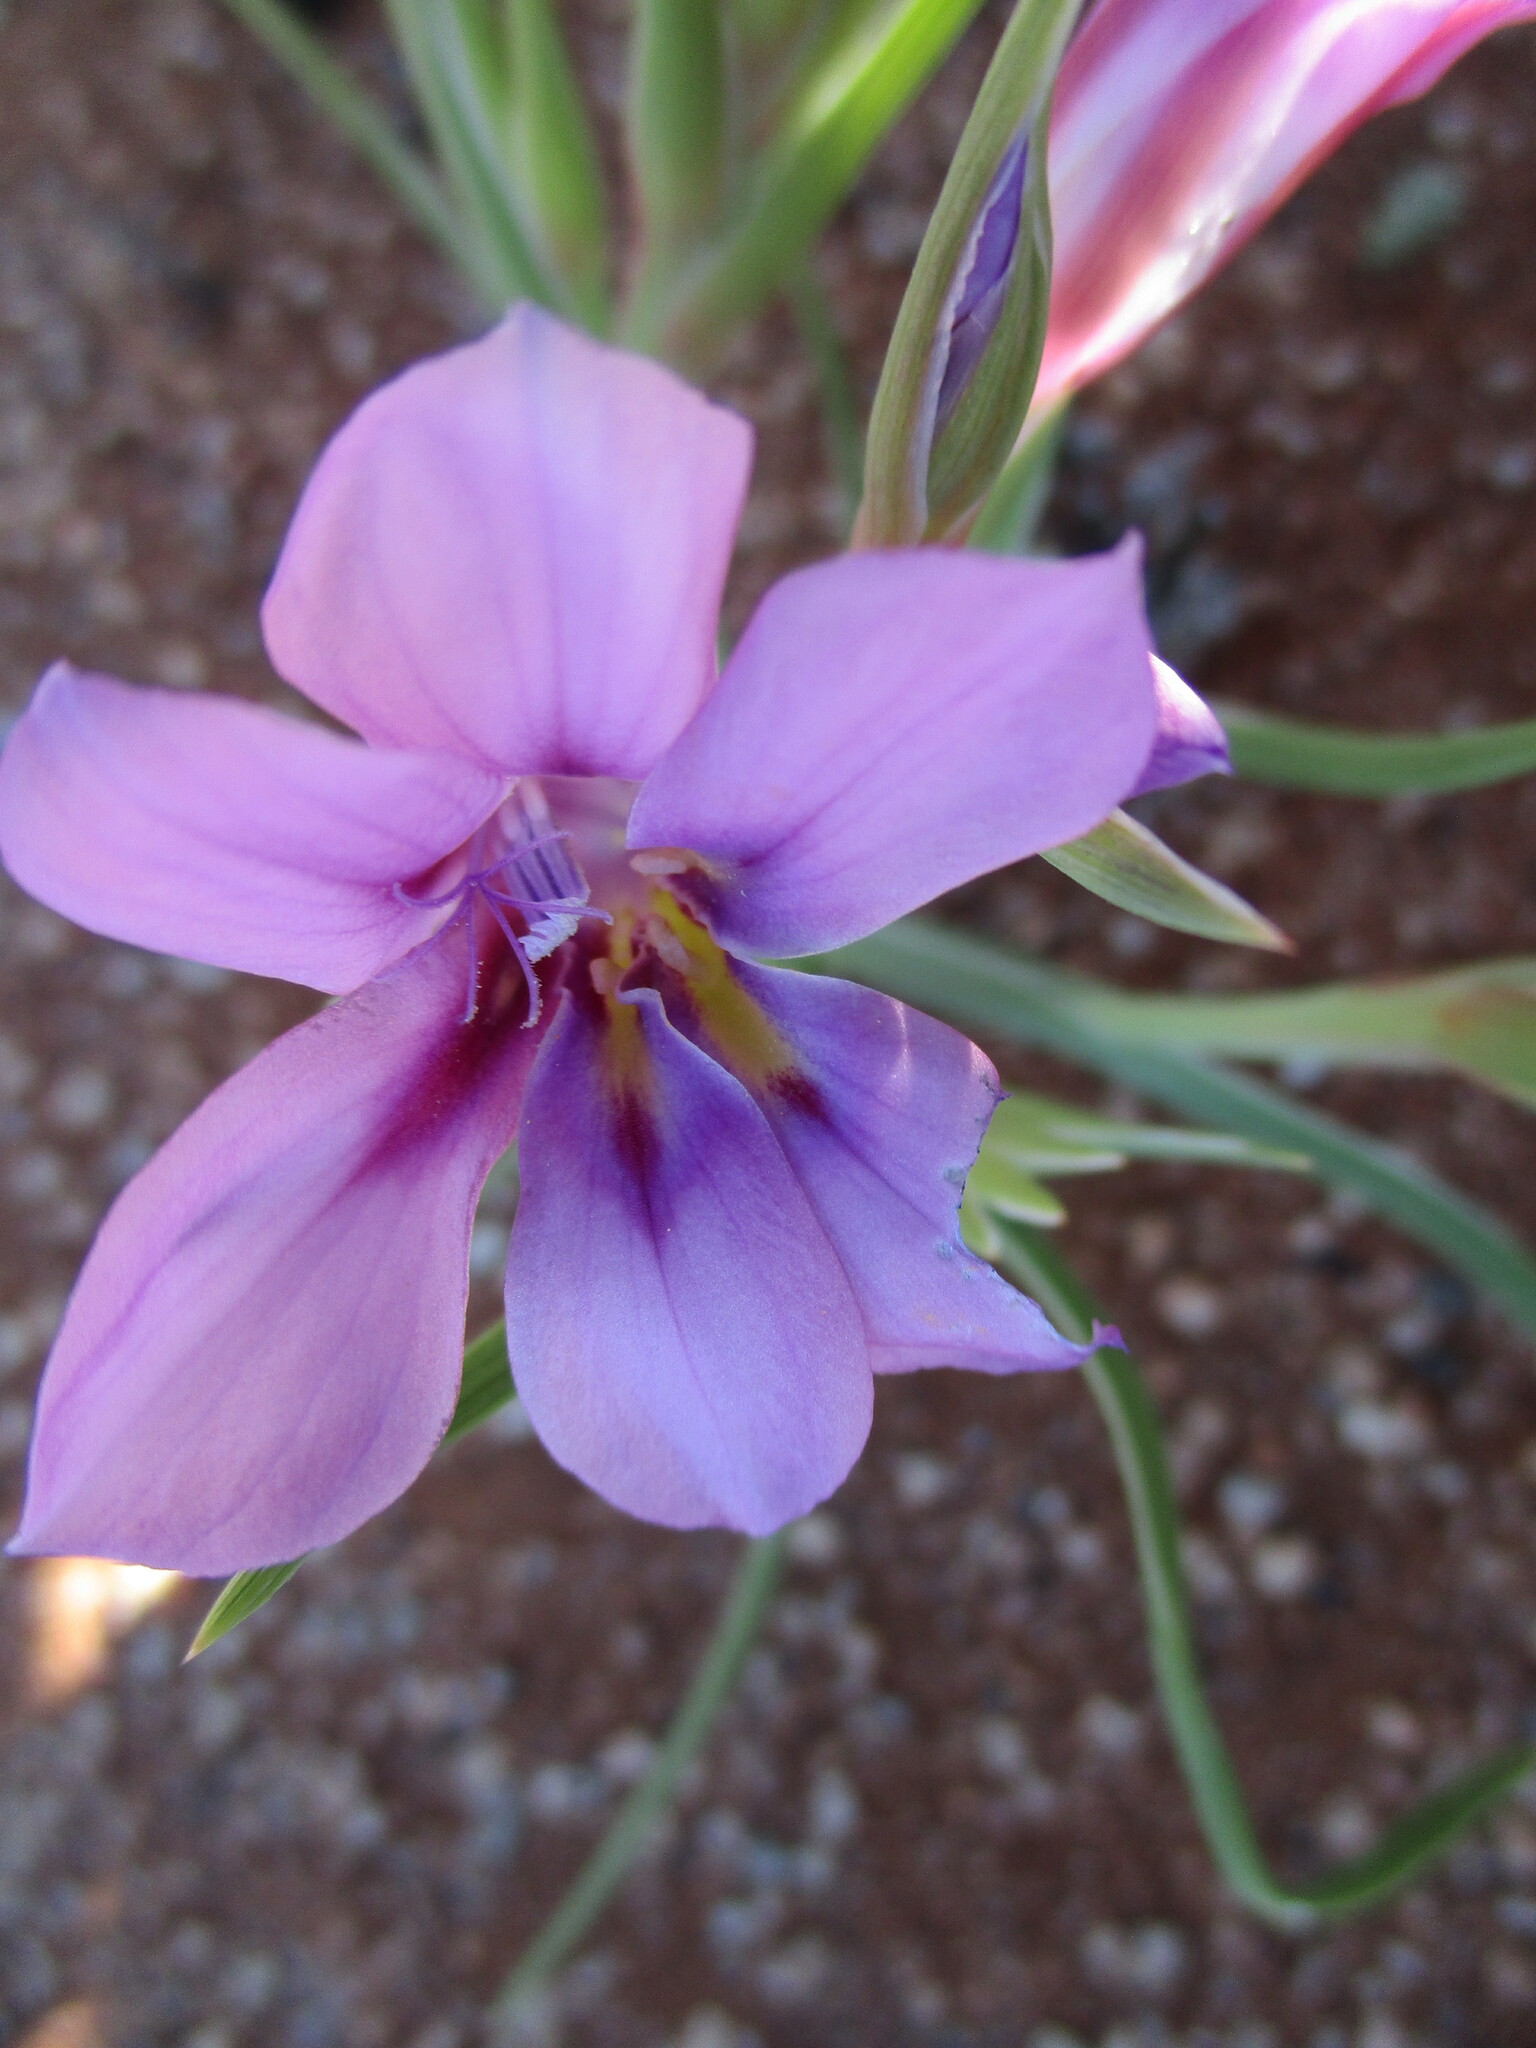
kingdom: Plantae
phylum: Tracheophyta
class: Liliopsida
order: Asparagales
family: Iridaceae
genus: Lapeirousia
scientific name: Lapeirousia barklyi
